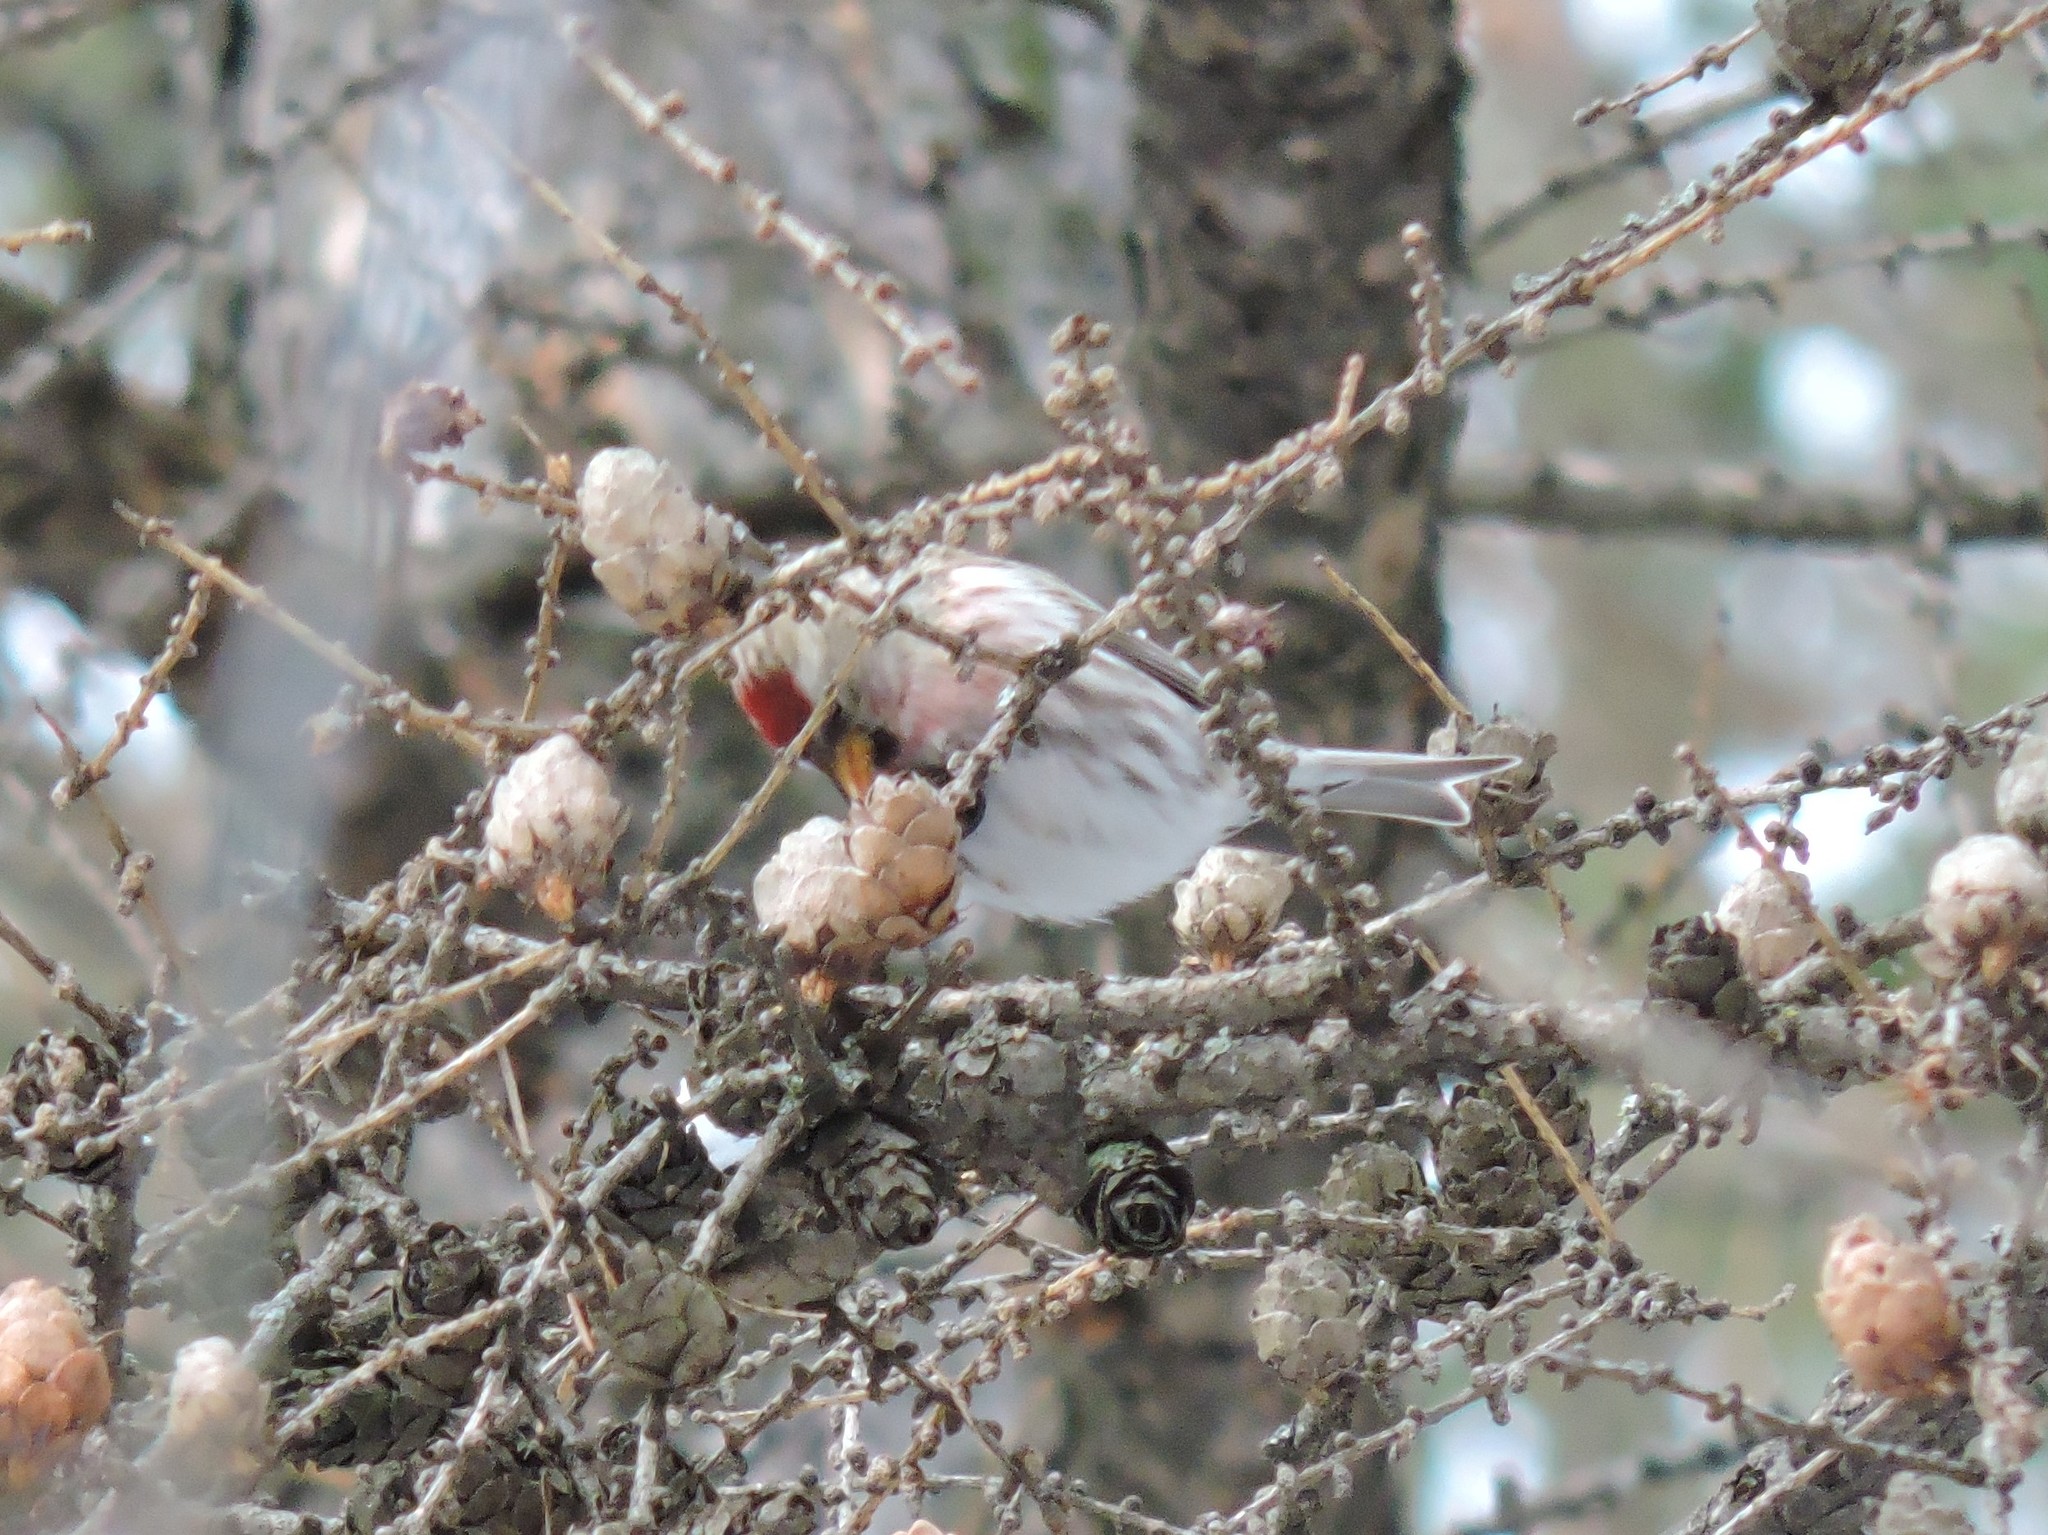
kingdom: Animalia
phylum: Chordata
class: Aves
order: Passeriformes
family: Fringillidae
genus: Acanthis
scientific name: Acanthis flammea
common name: Common redpoll
